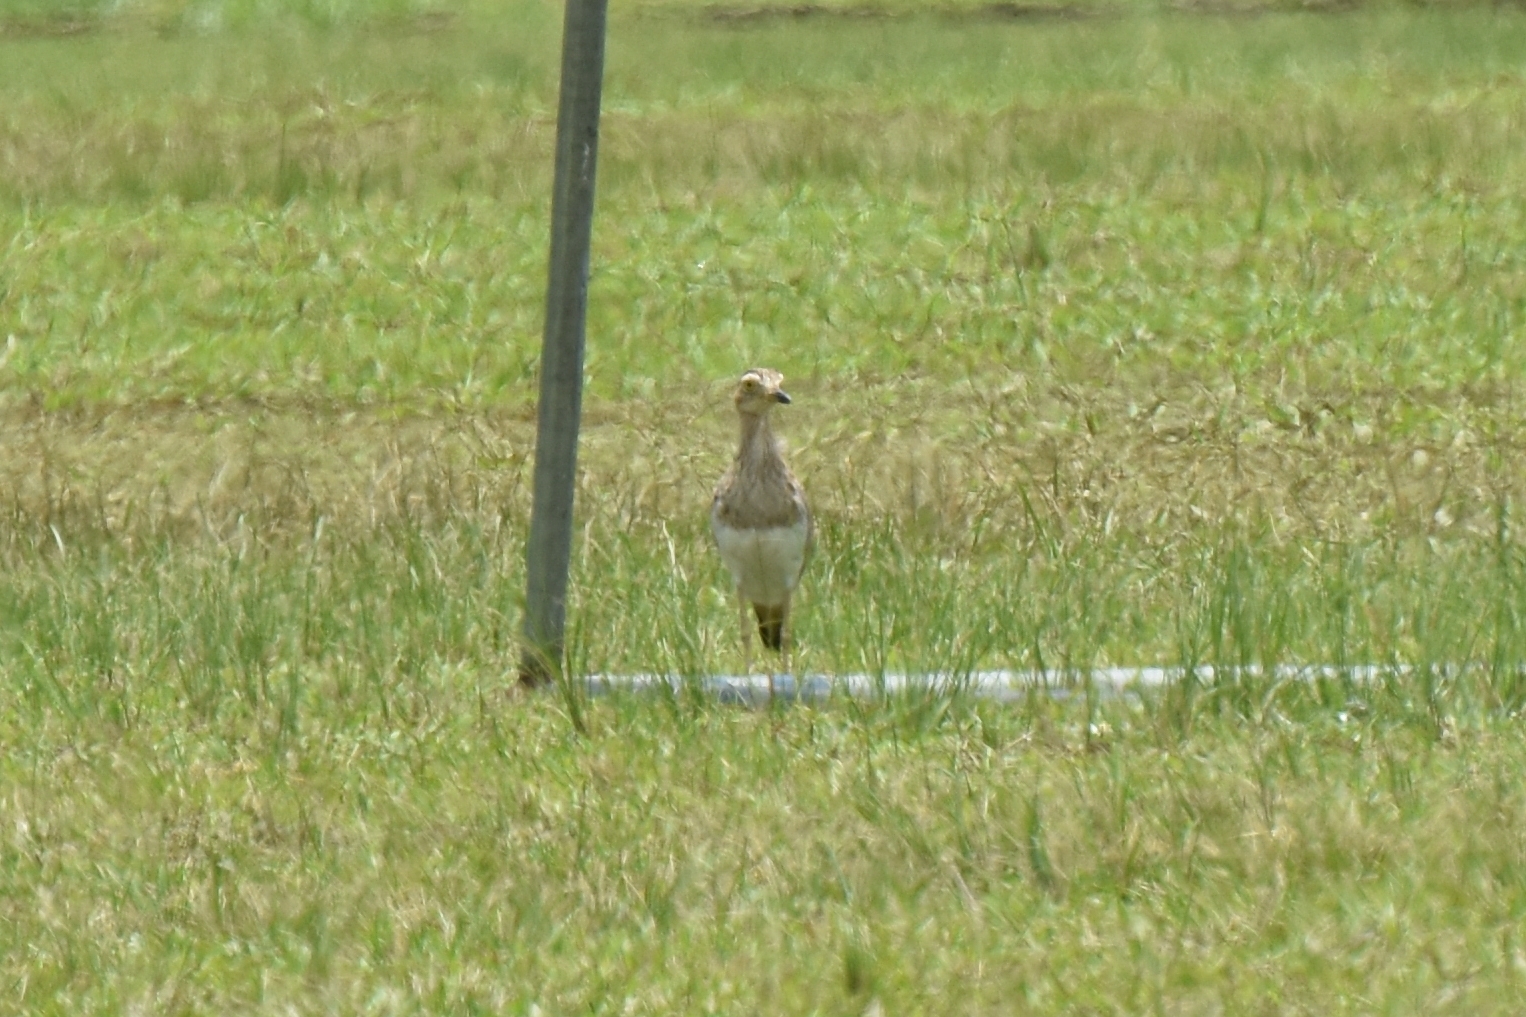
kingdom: Animalia
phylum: Chordata
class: Aves
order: Charadriiformes
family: Burhinidae
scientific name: Burhinidae
